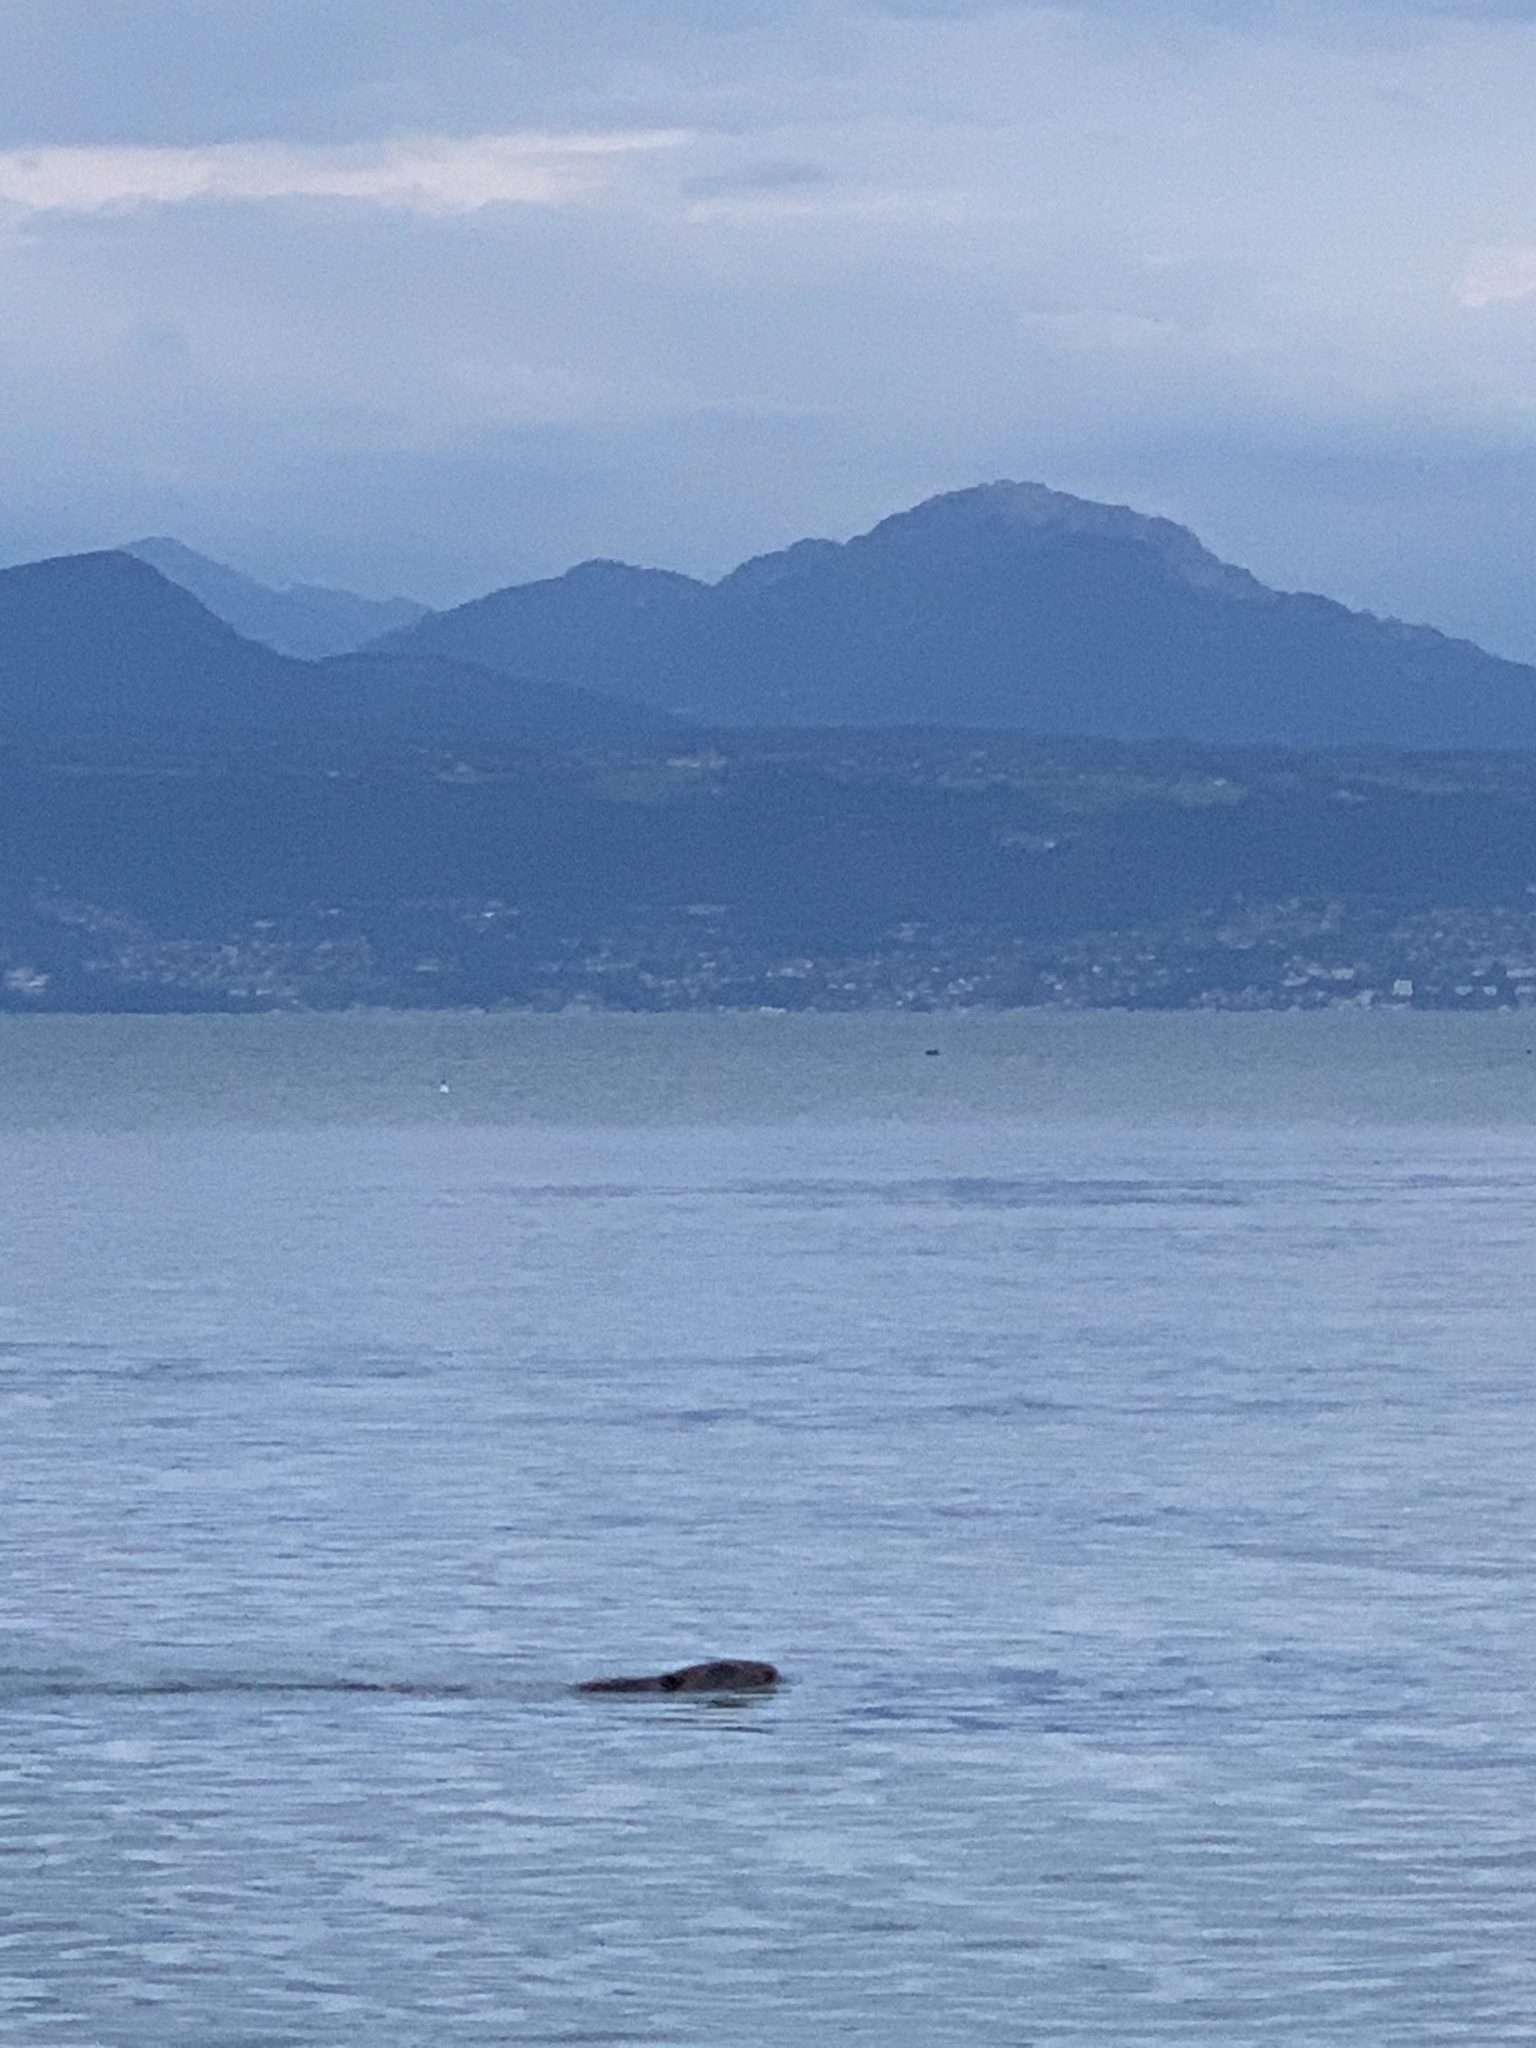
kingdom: Animalia
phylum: Chordata
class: Mammalia
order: Rodentia
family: Castoridae
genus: Castor
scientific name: Castor fiber
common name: Eurasian beaver
